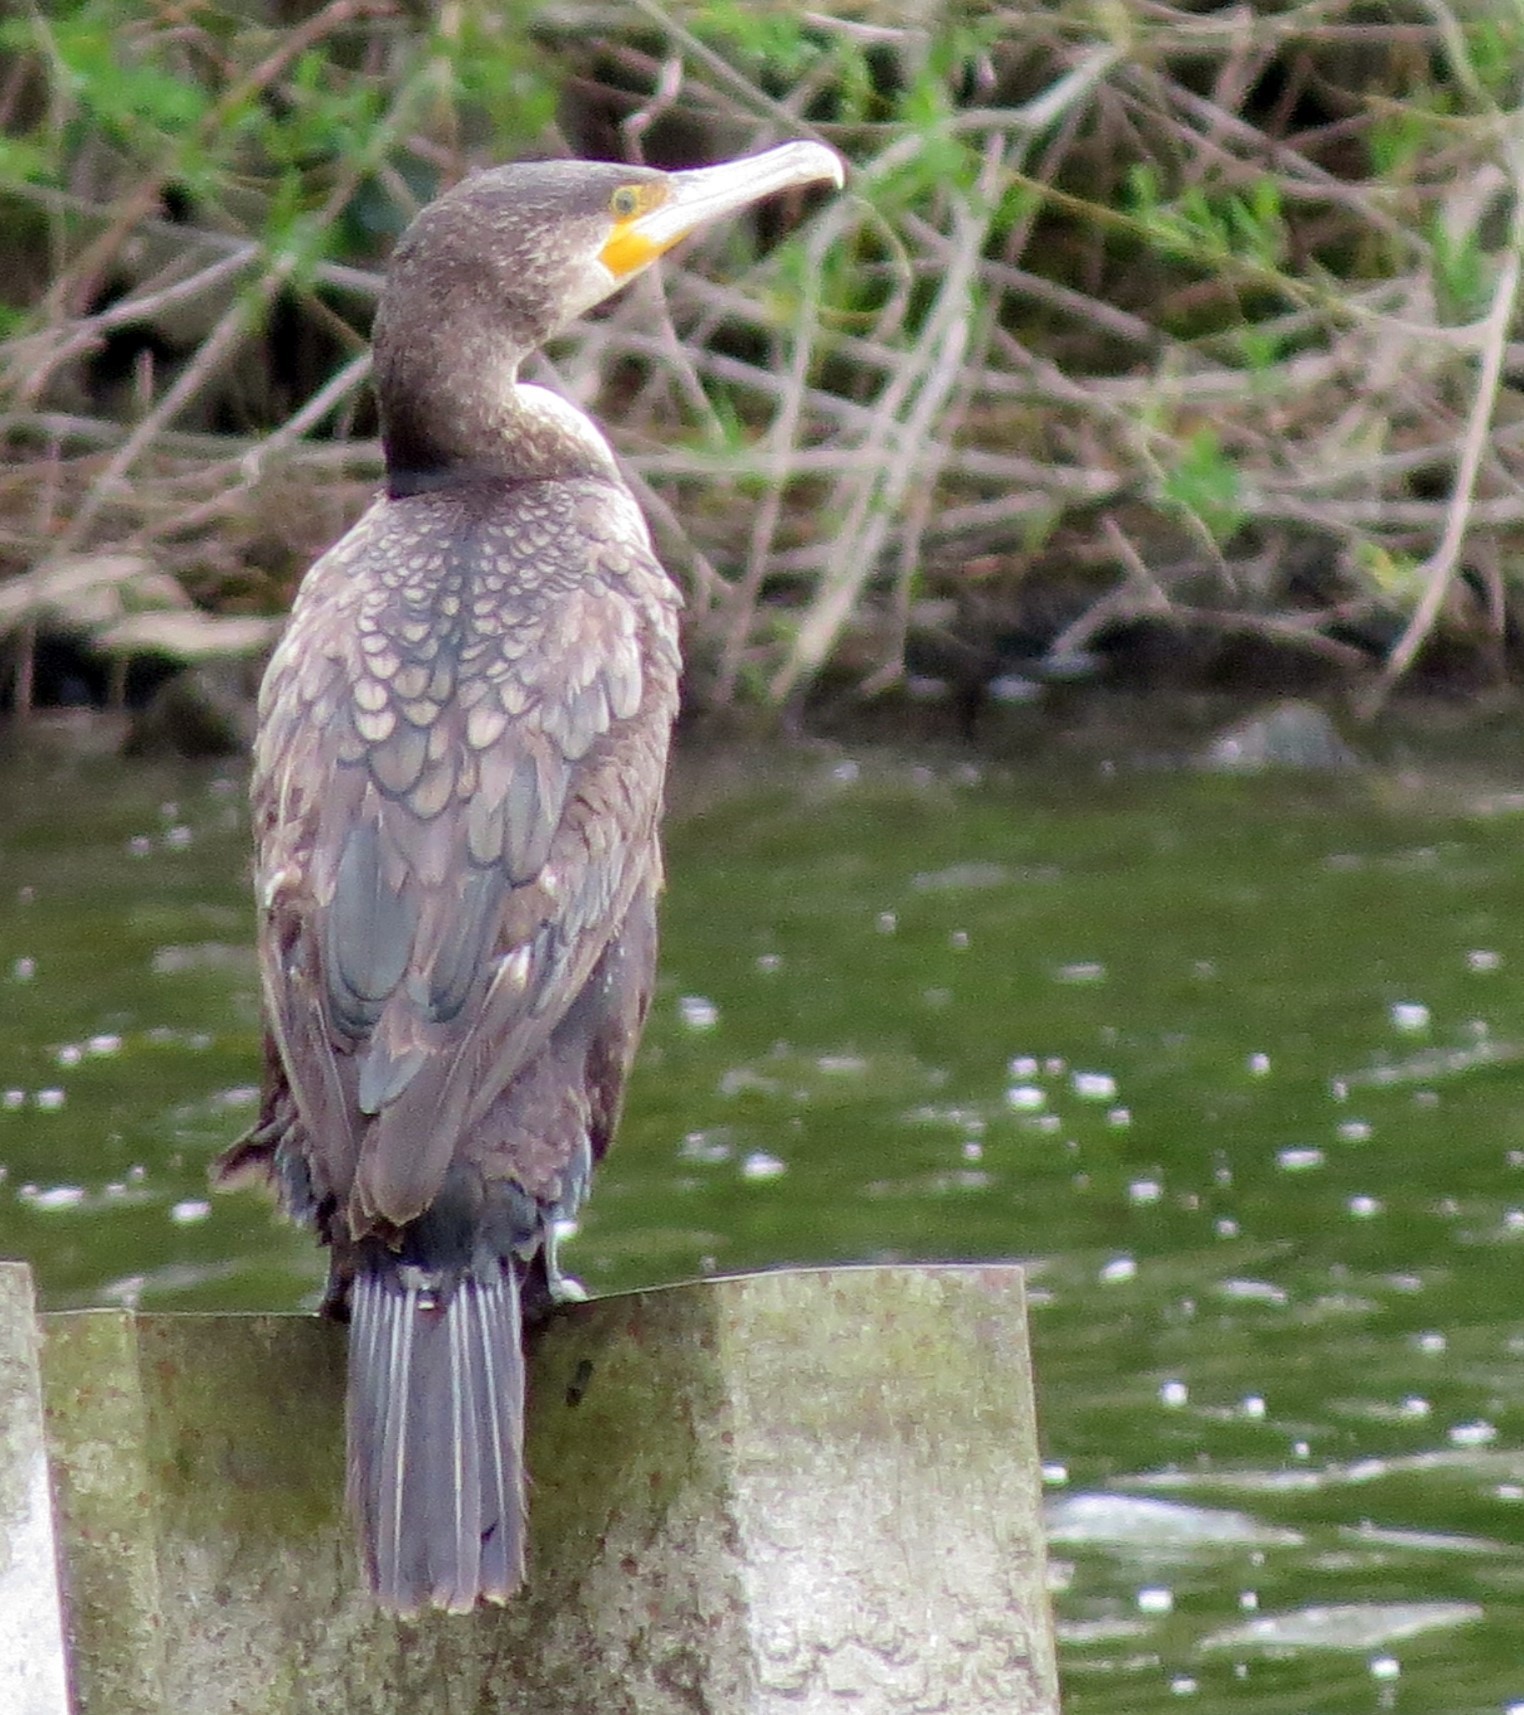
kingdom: Animalia
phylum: Chordata
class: Aves
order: Suliformes
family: Phalacrocoracidae
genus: Phalacrocorax
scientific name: Phalacrocorax carbo
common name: Great cormorant
